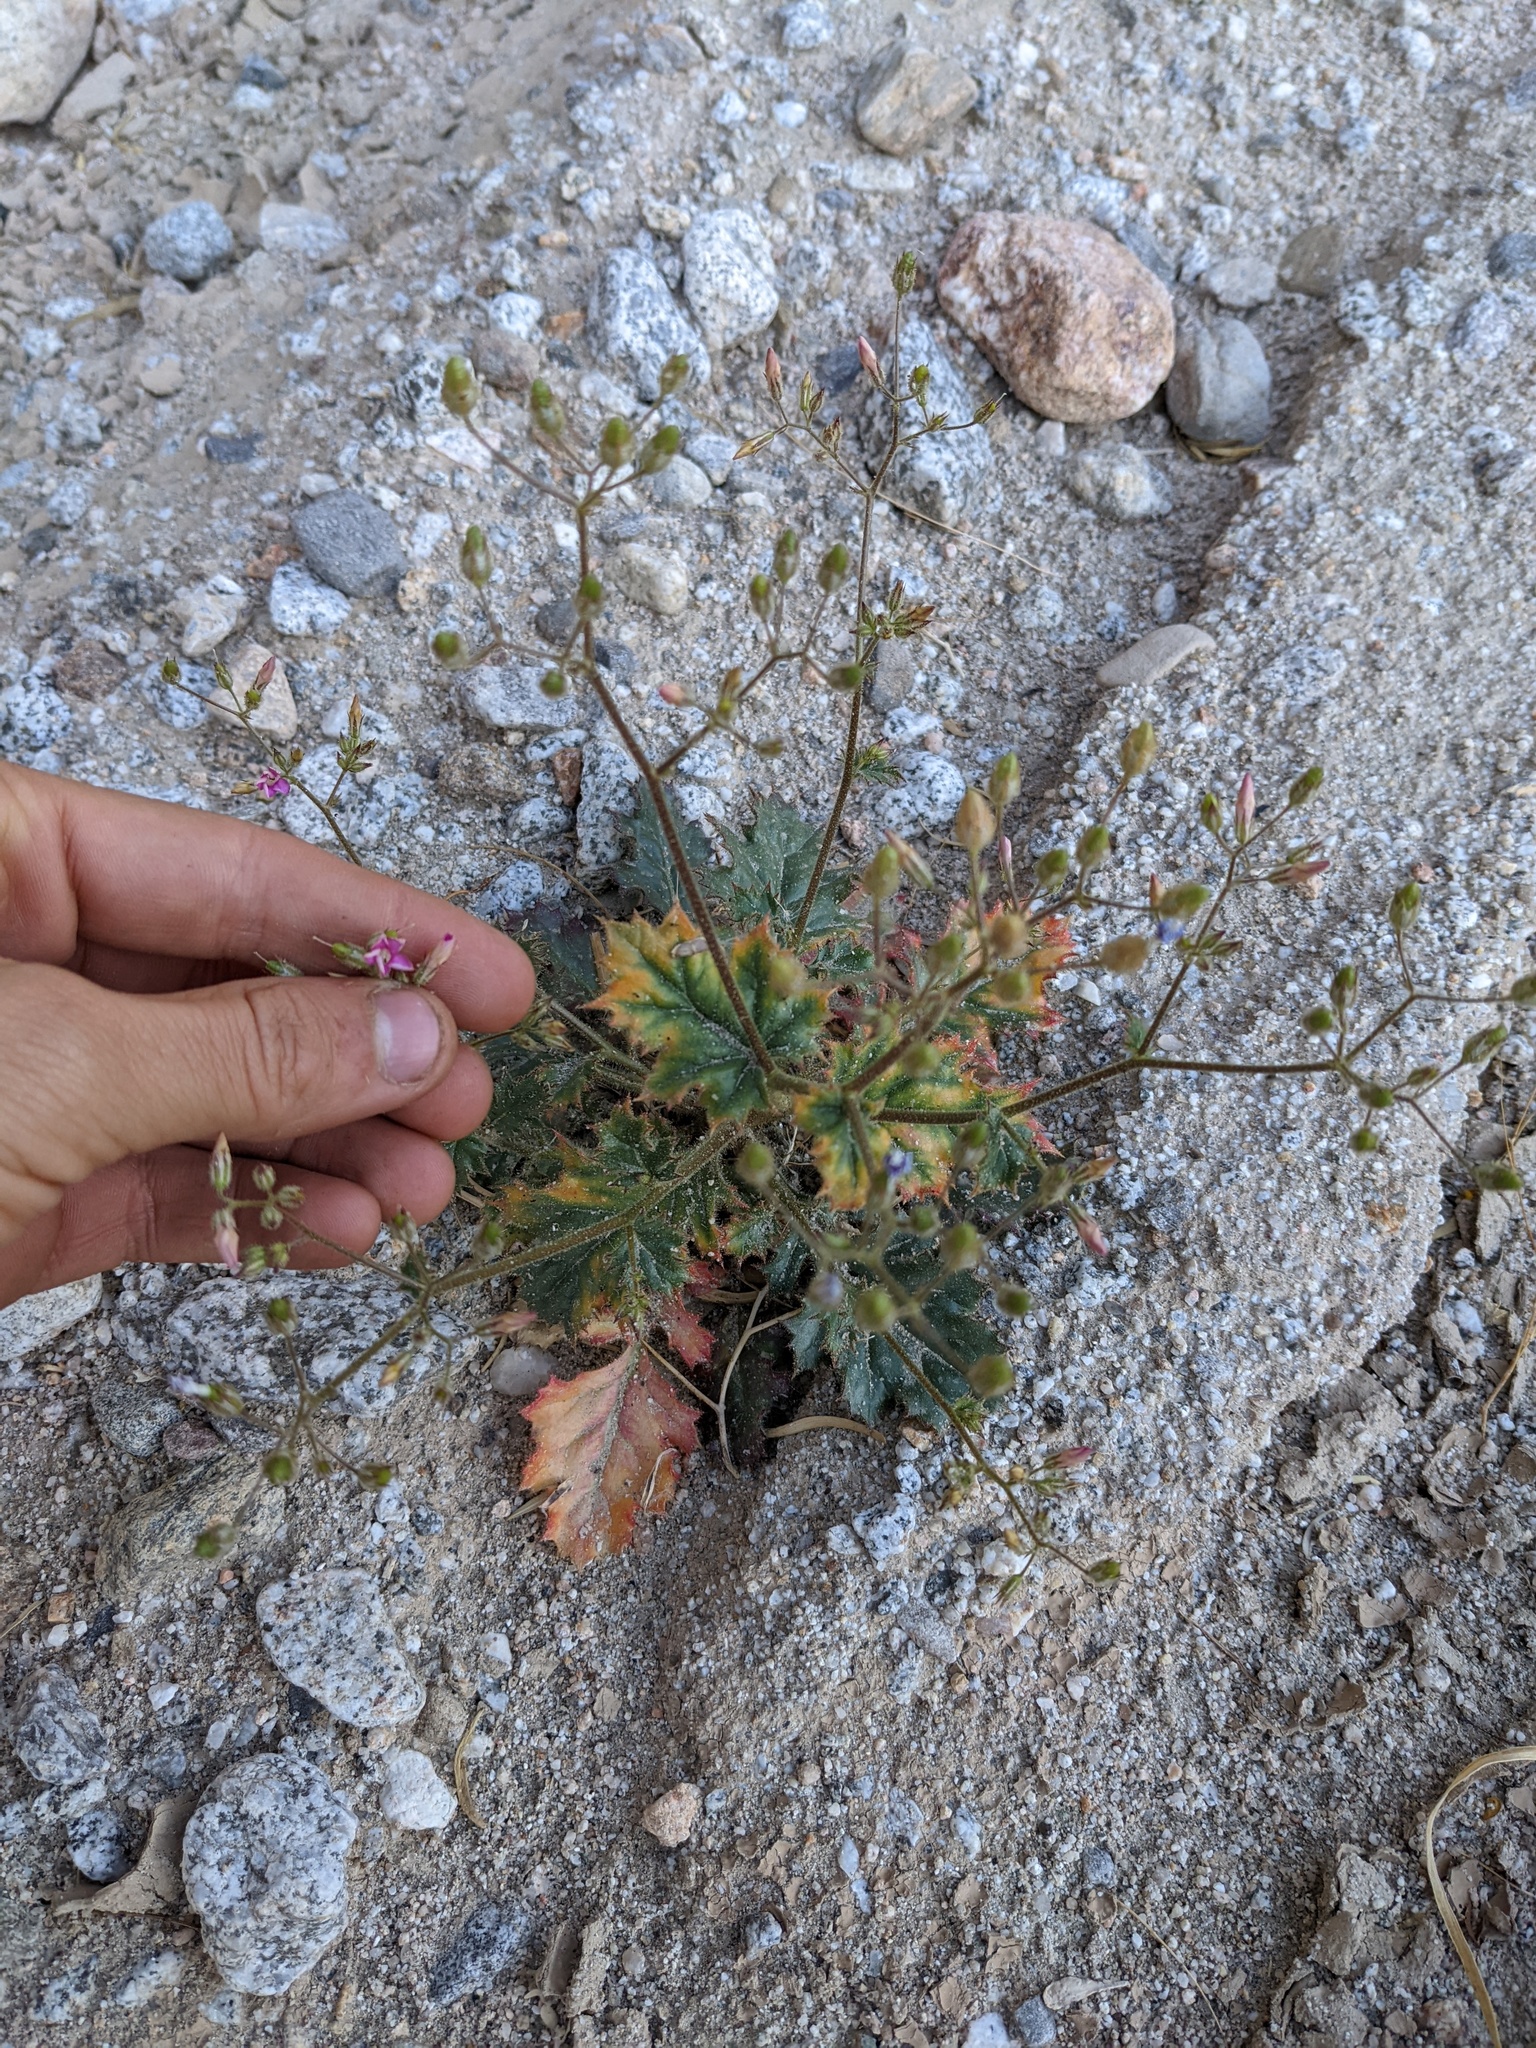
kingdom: Plantae
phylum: Tracheophyta
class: Magnoliopsida
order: Ericales
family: Polemoniaceae
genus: Aliciella
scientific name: Aliciella latifolia
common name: Broad-leaf gilia
